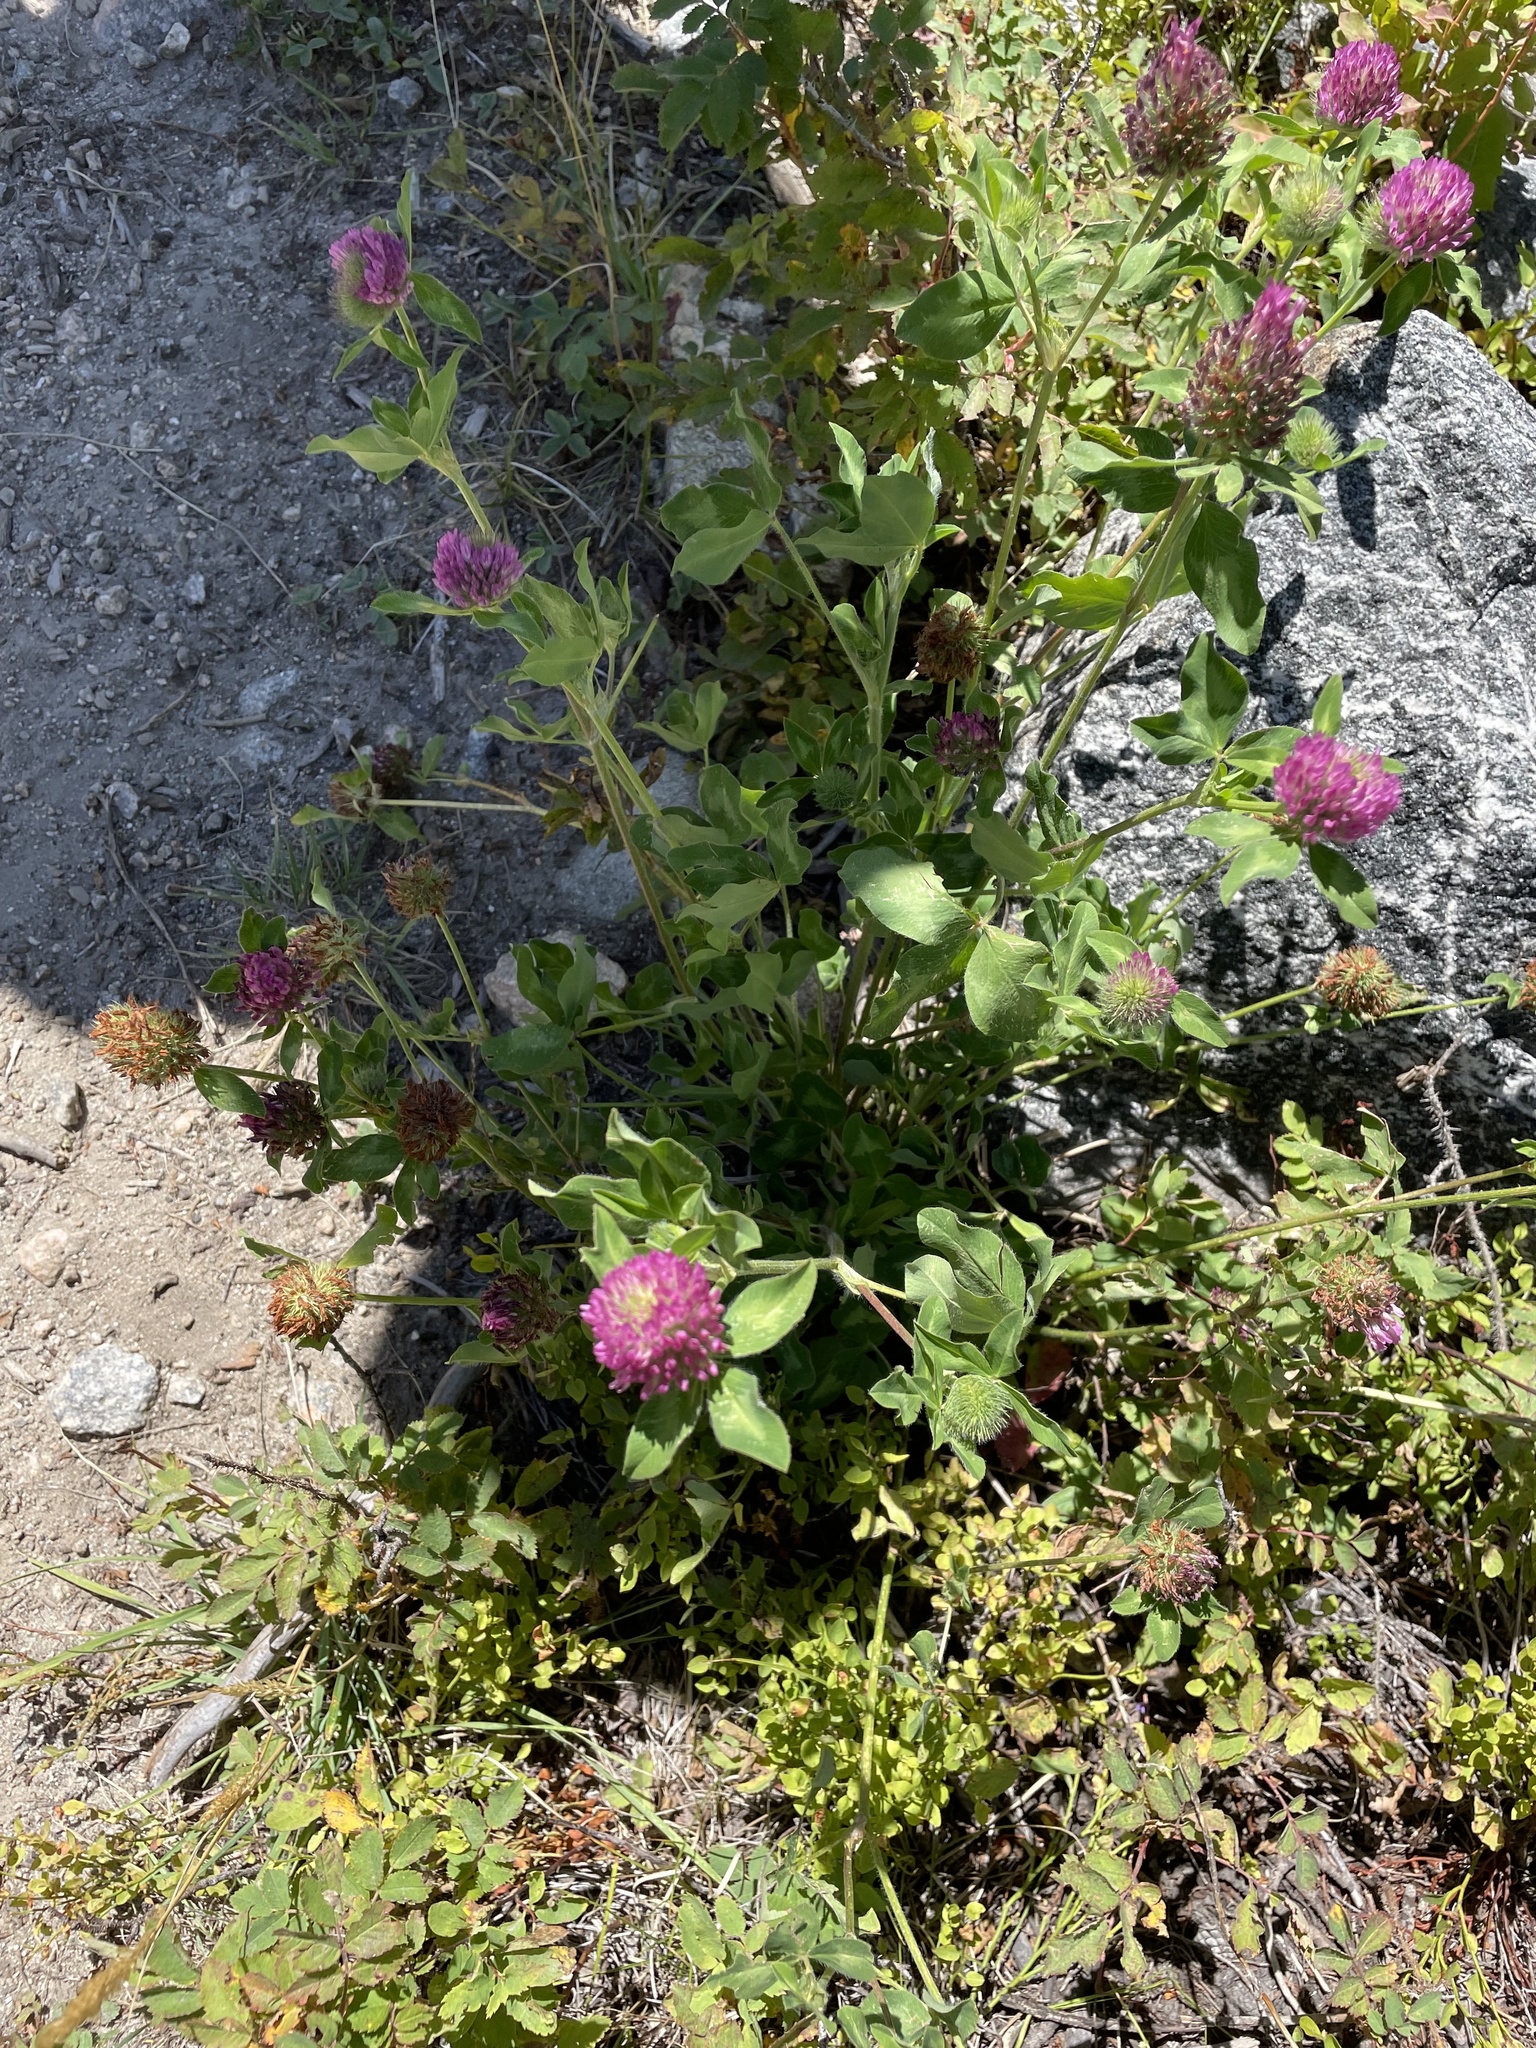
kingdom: Plantae
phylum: Tracheophyta
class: Magnoliopsida
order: Fabales
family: Fabaceae
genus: Trifolium
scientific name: Trifolium pratense
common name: Red clover
